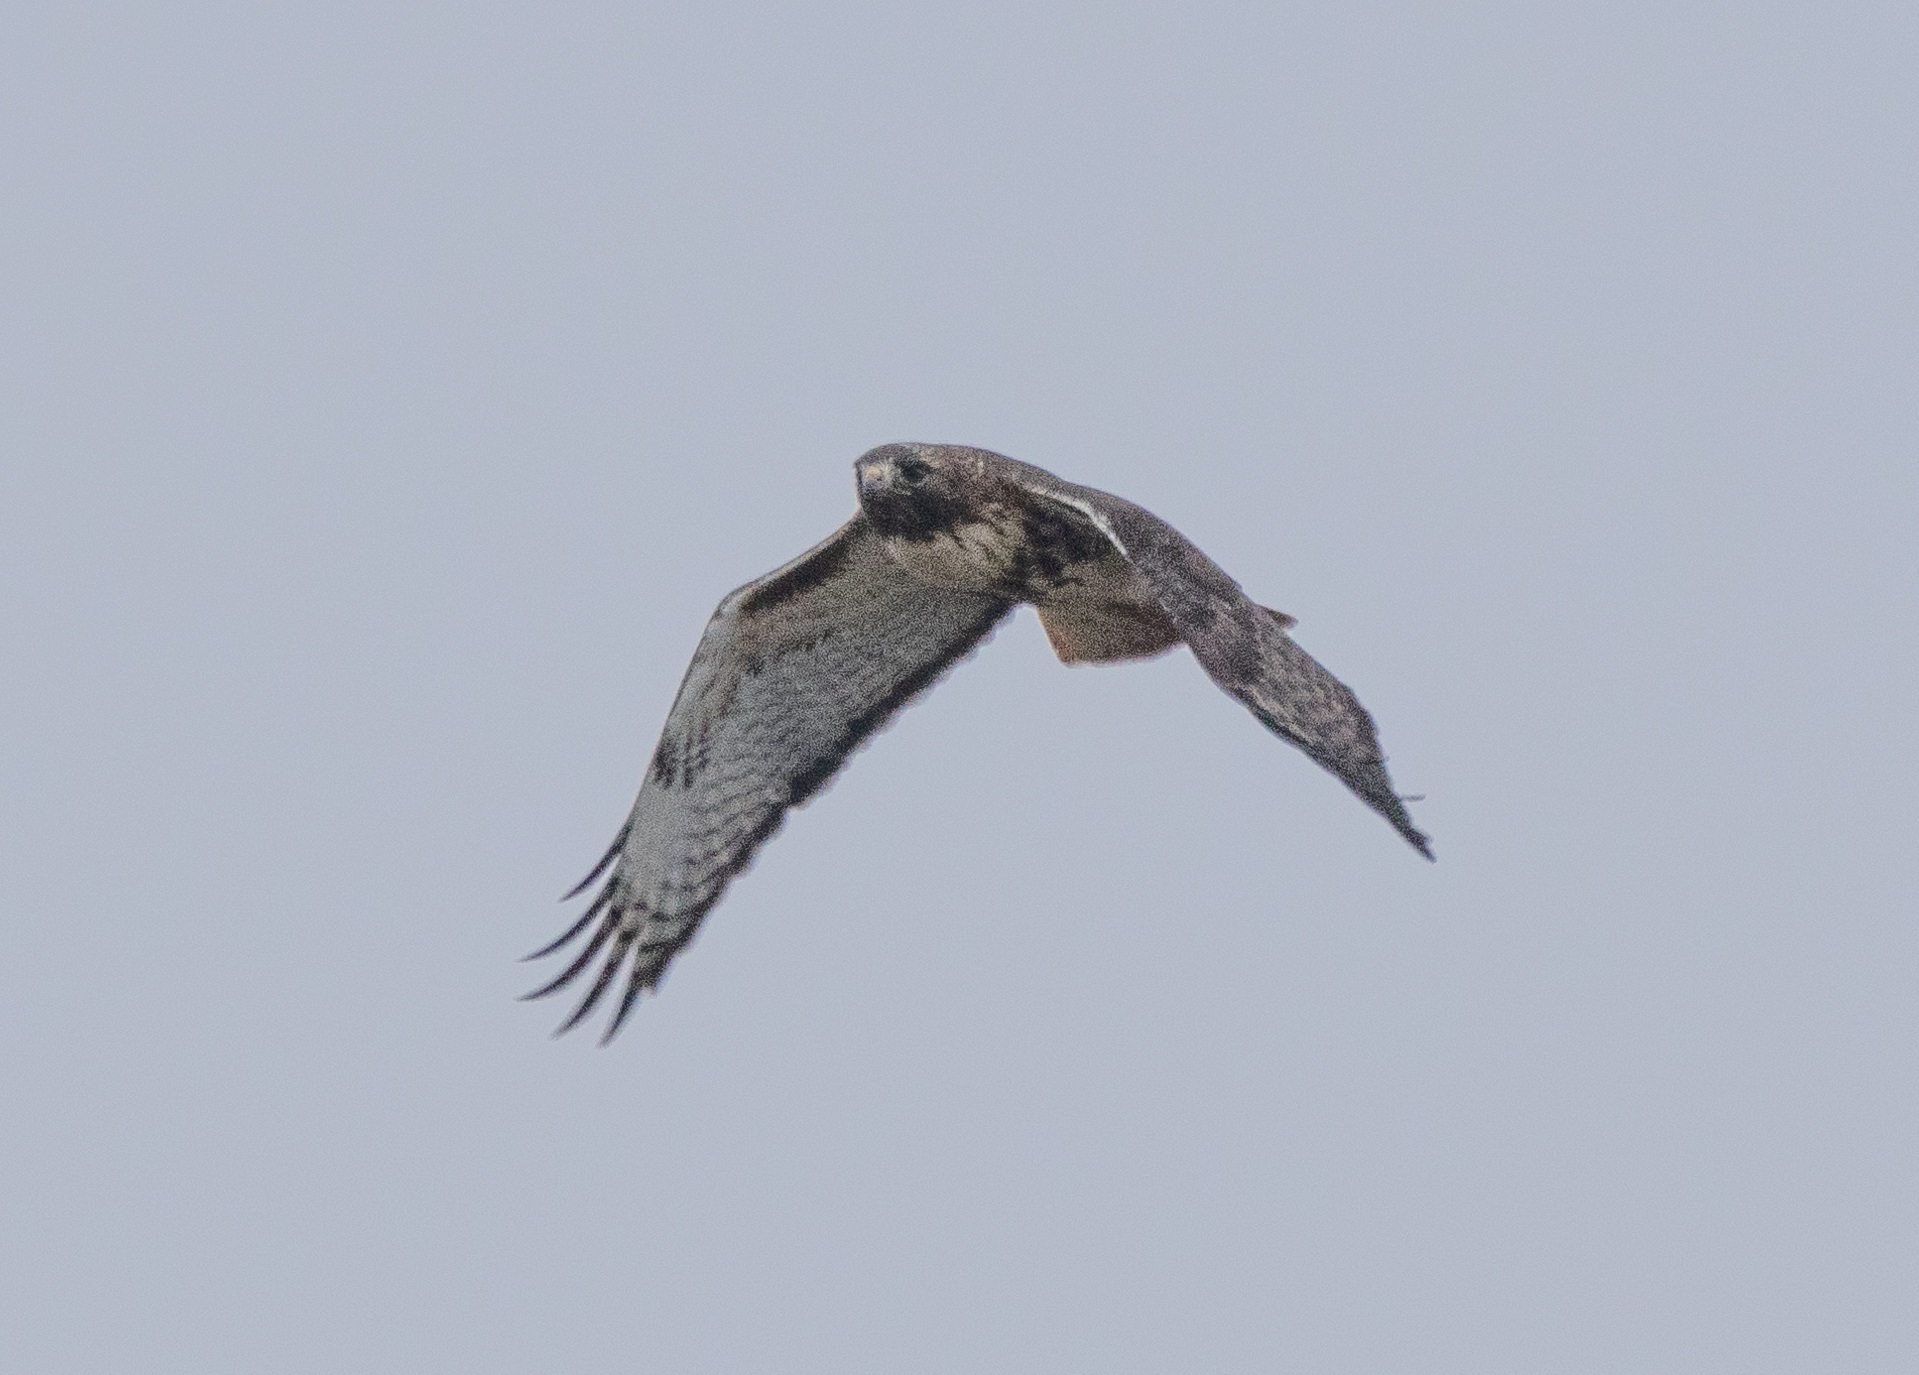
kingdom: Animalia
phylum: Chordata
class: Aves
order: Accipitriformes
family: Accipitridae
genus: Buteo
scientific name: Buteo jamaicensis
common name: Red-tailed hawk
